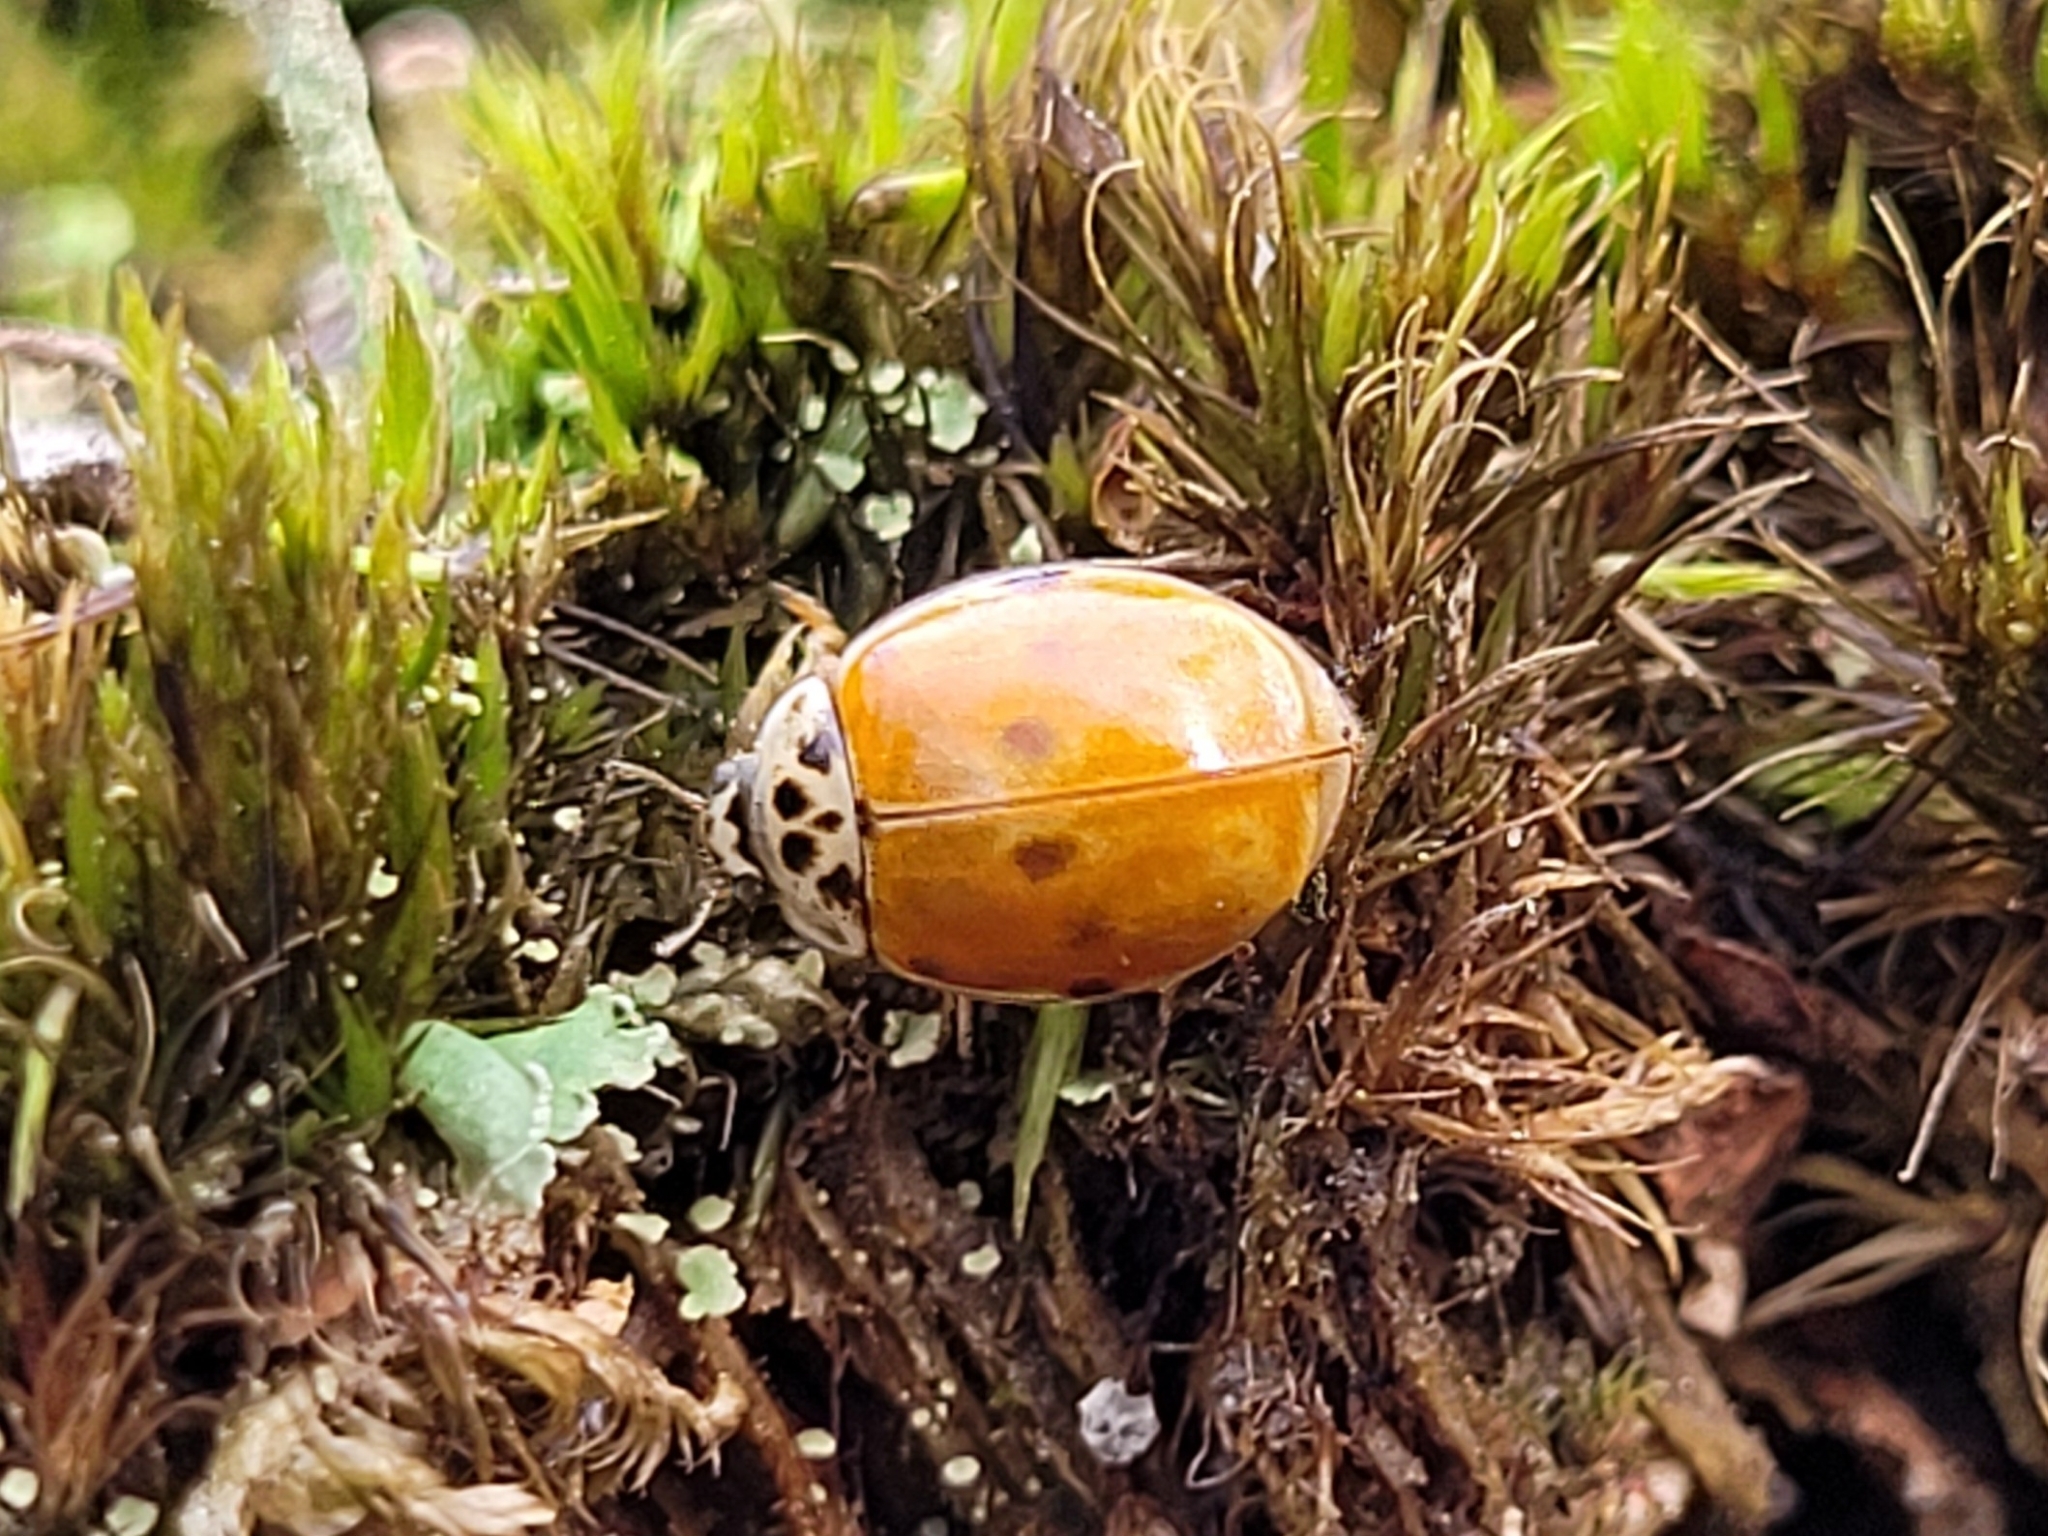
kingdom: Animalia
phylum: Arthropoda
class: Insecta
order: Coleoptera
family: Coccinellidae
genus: Adalia
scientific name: Adalia decempunctata
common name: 10-spot ladybird
